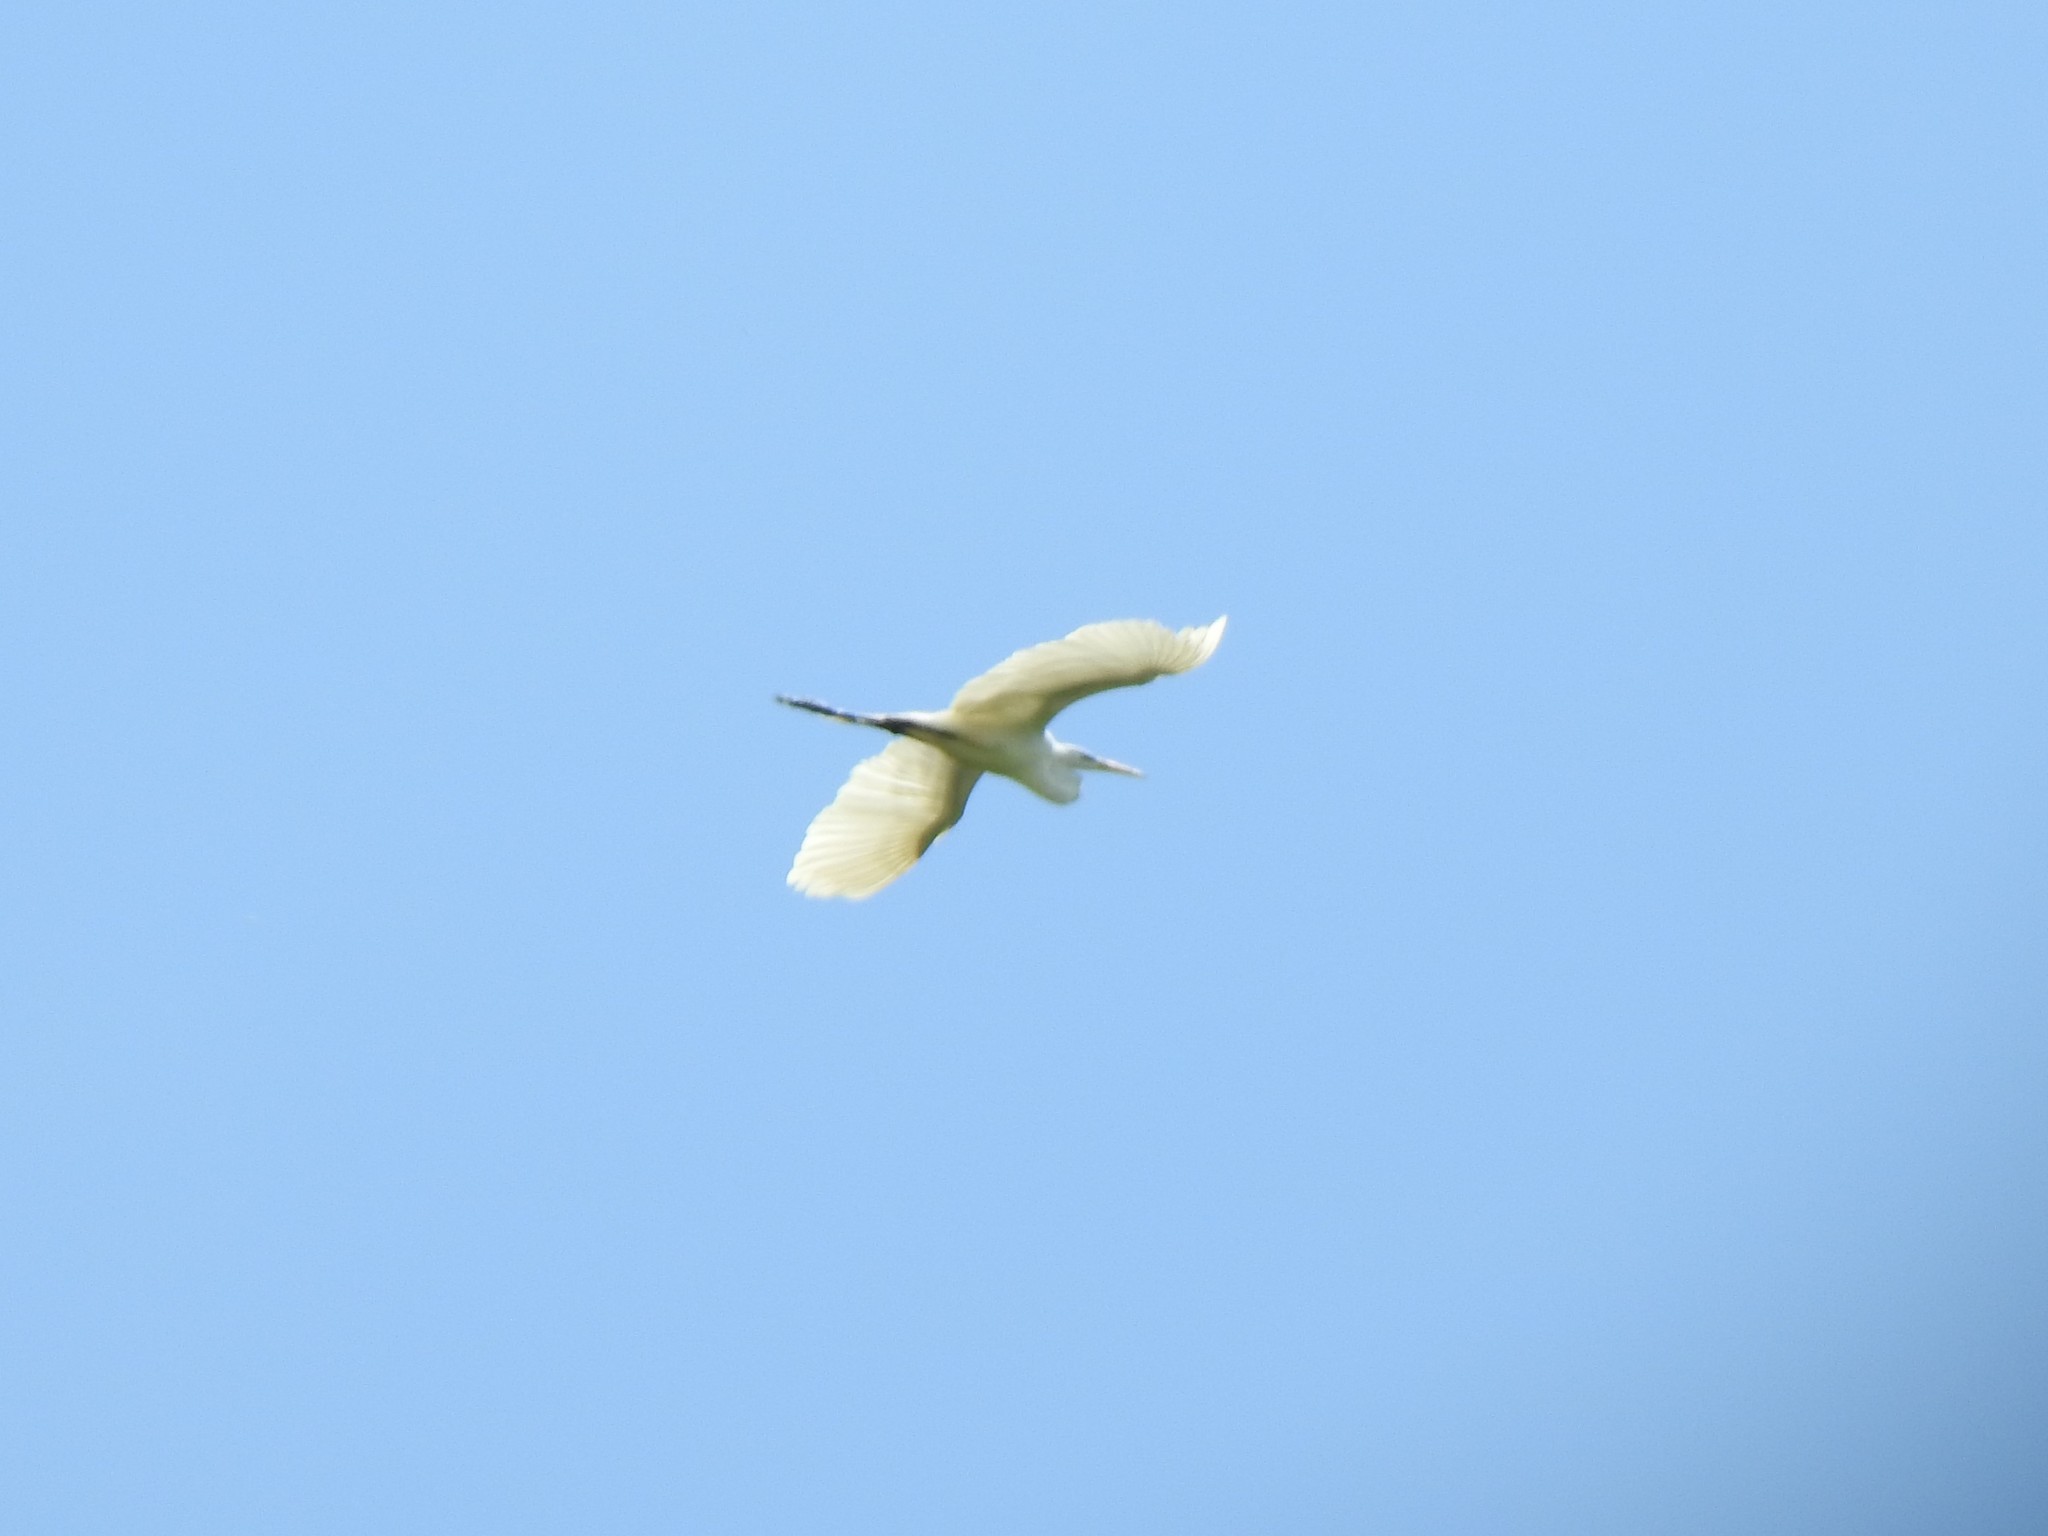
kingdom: Animalia
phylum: Chordata
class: Aves
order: Pelecaniformes
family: Ardeidae
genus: Ardea
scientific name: Ardea alba
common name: Great egret
